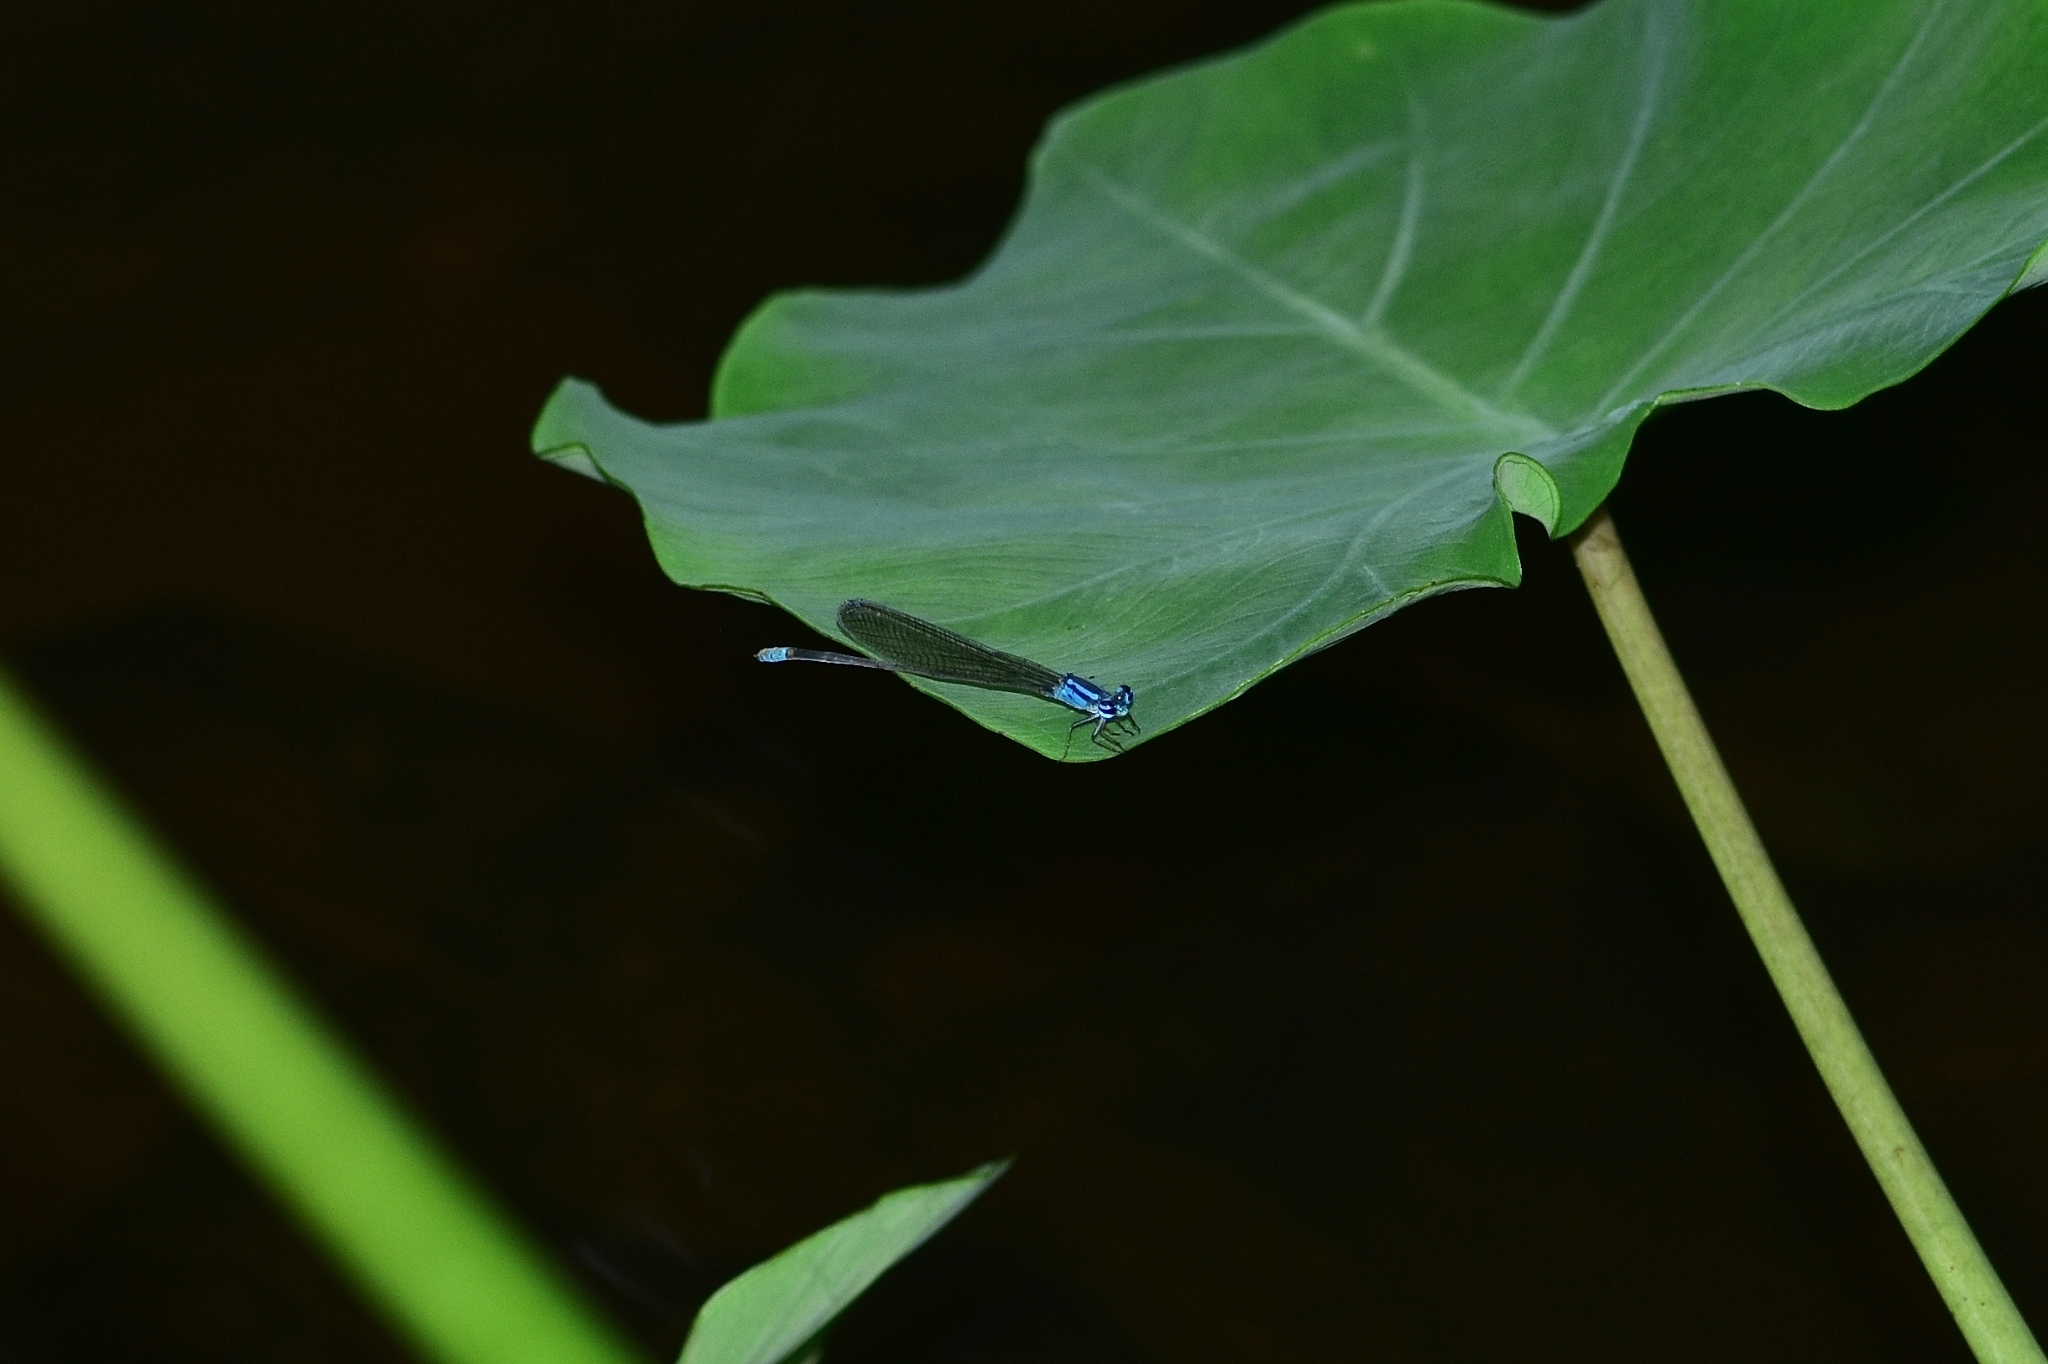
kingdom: Animalia
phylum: Arthropoda
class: Insecta
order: Odonata
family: Coenagrionidae
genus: Archibasis
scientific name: Archibasis oscillans
